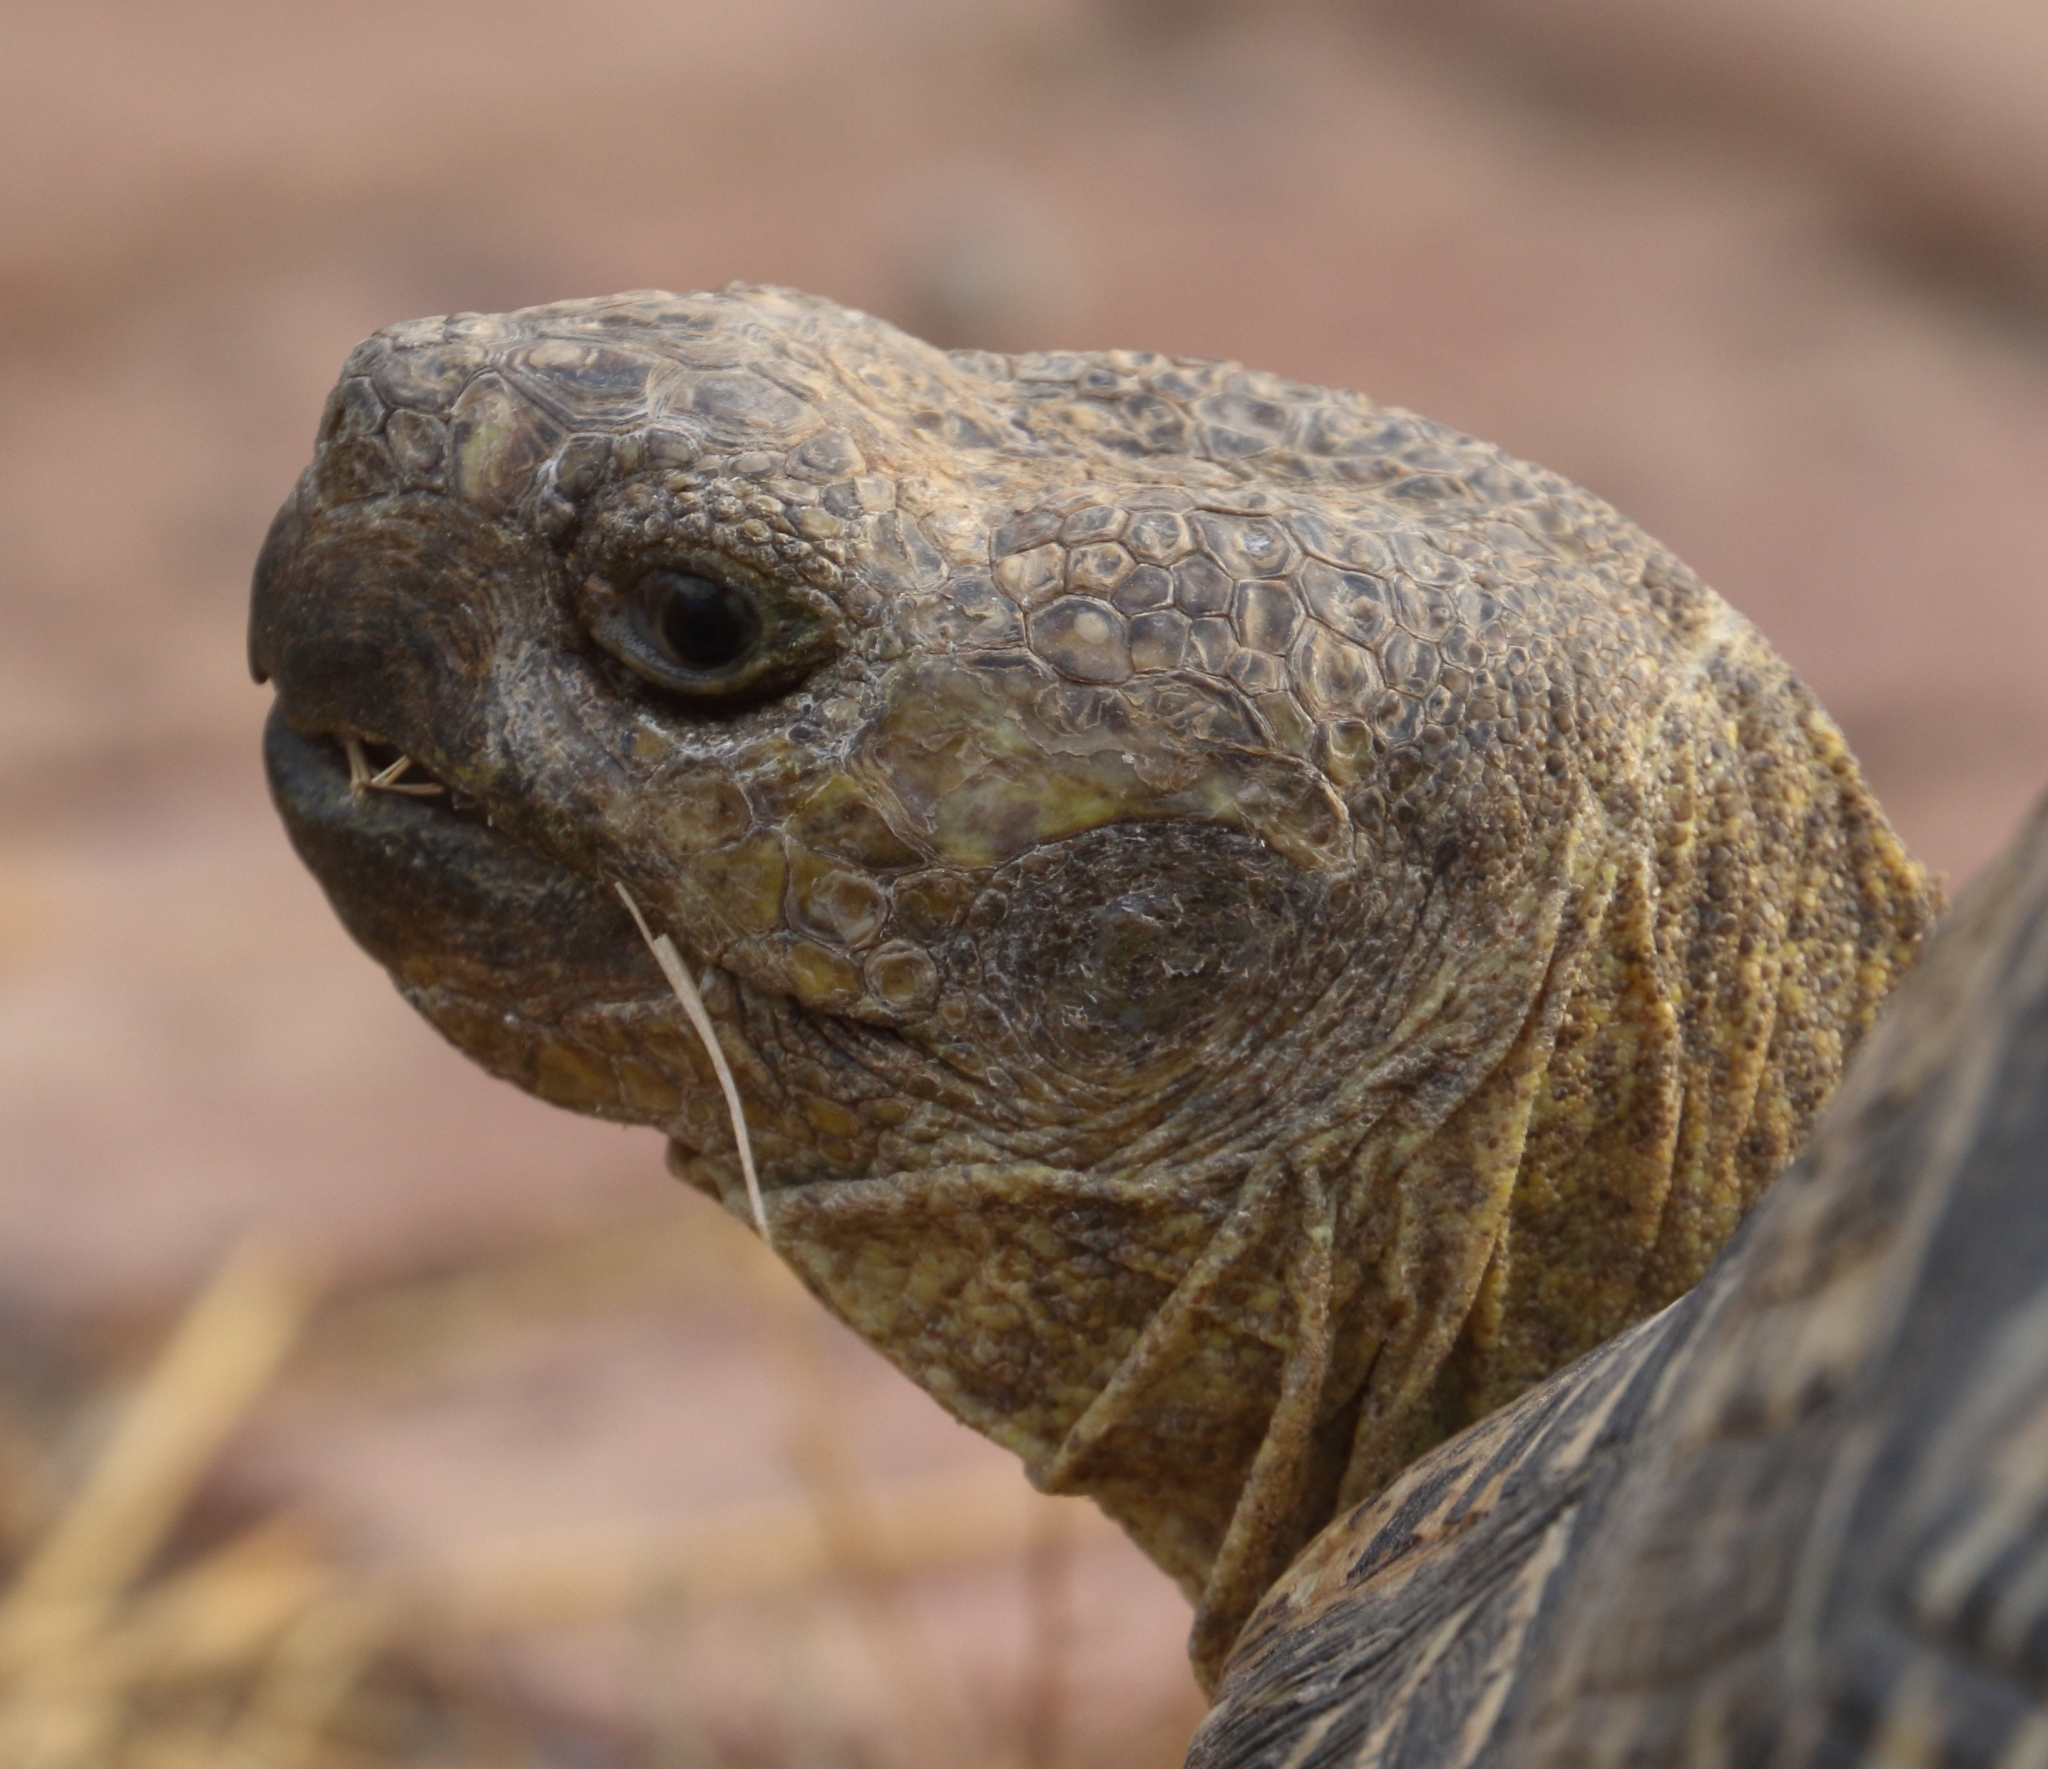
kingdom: Animalia
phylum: Chordata
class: Testudines
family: Testudinidae
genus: Stigmochelys
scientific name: Stigmochelys pardalis
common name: Leopard tortoise
